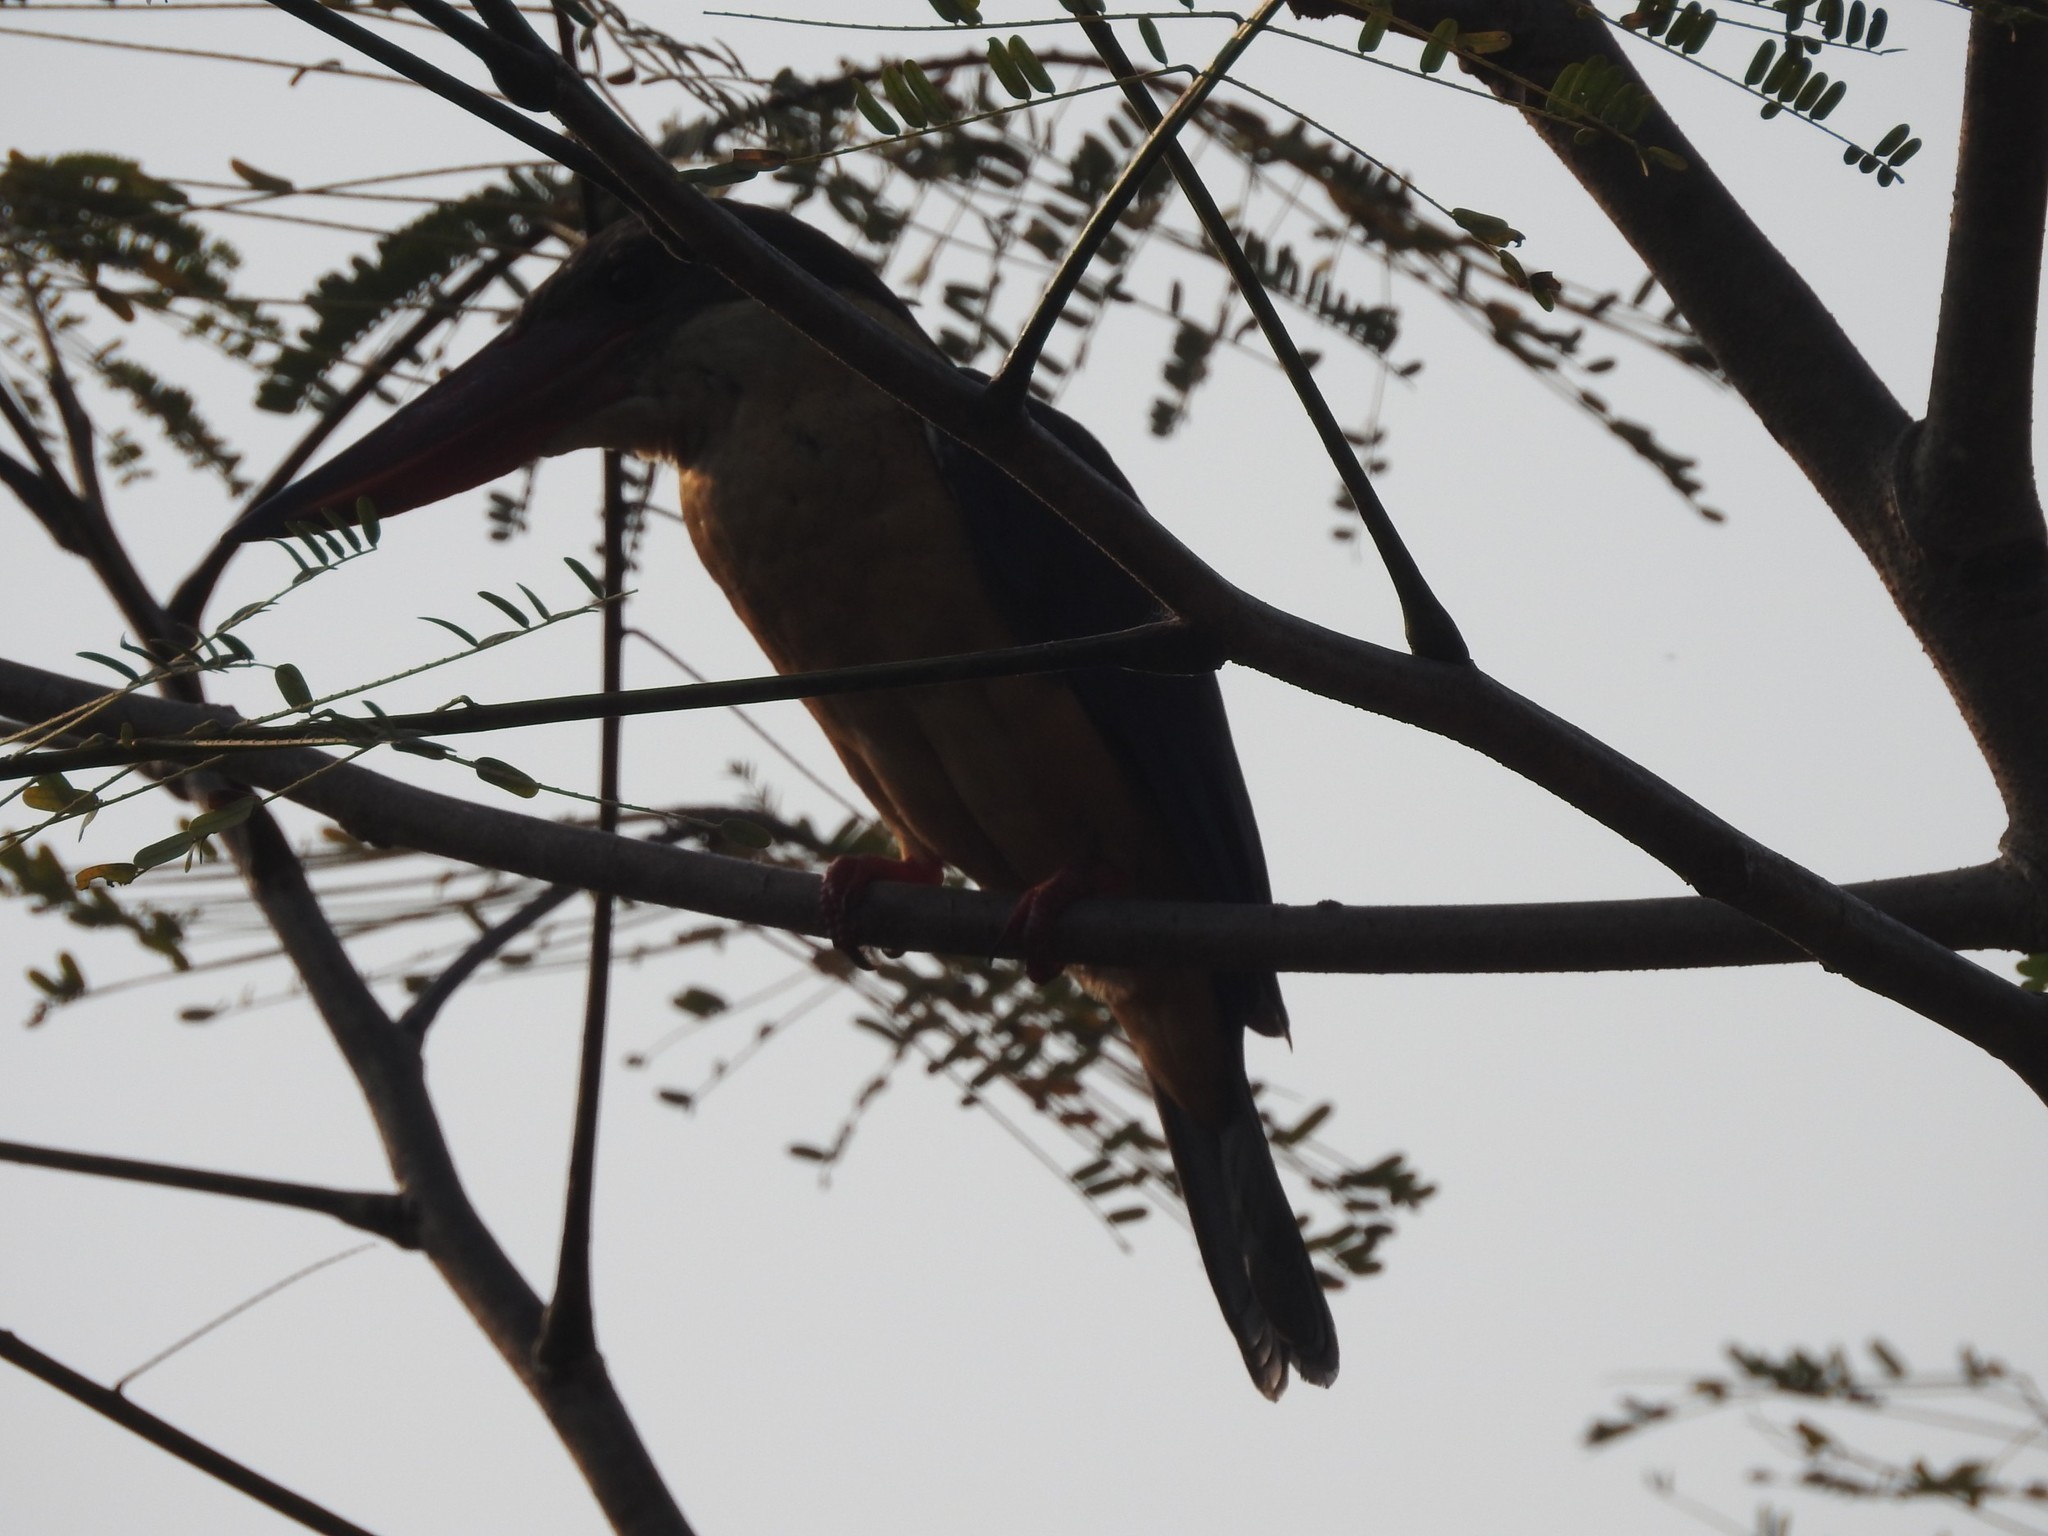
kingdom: Animalia
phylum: Chordata
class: Aves
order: Coraciiformes
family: Alcedinidae
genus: Pelargopsis
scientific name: Pelargopsis capensis
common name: Stork-billed kingfisher
